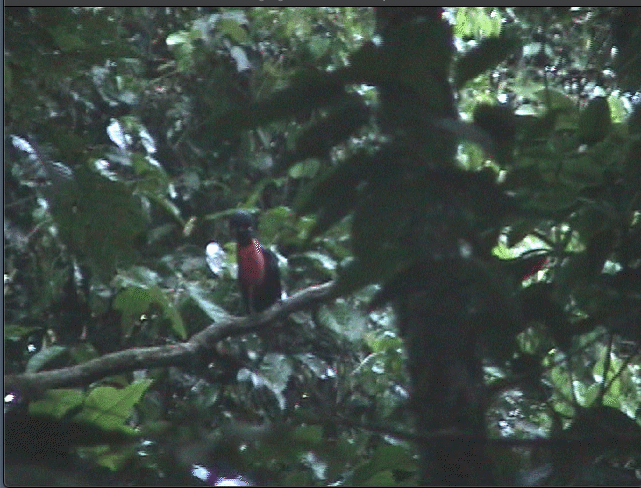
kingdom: Animalia
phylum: Chordata
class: Aves
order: Passeriformes
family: Cotingidae
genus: Cephalopterus
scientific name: Cephalopterus glabricollis
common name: Bare-necked umbrellabird
